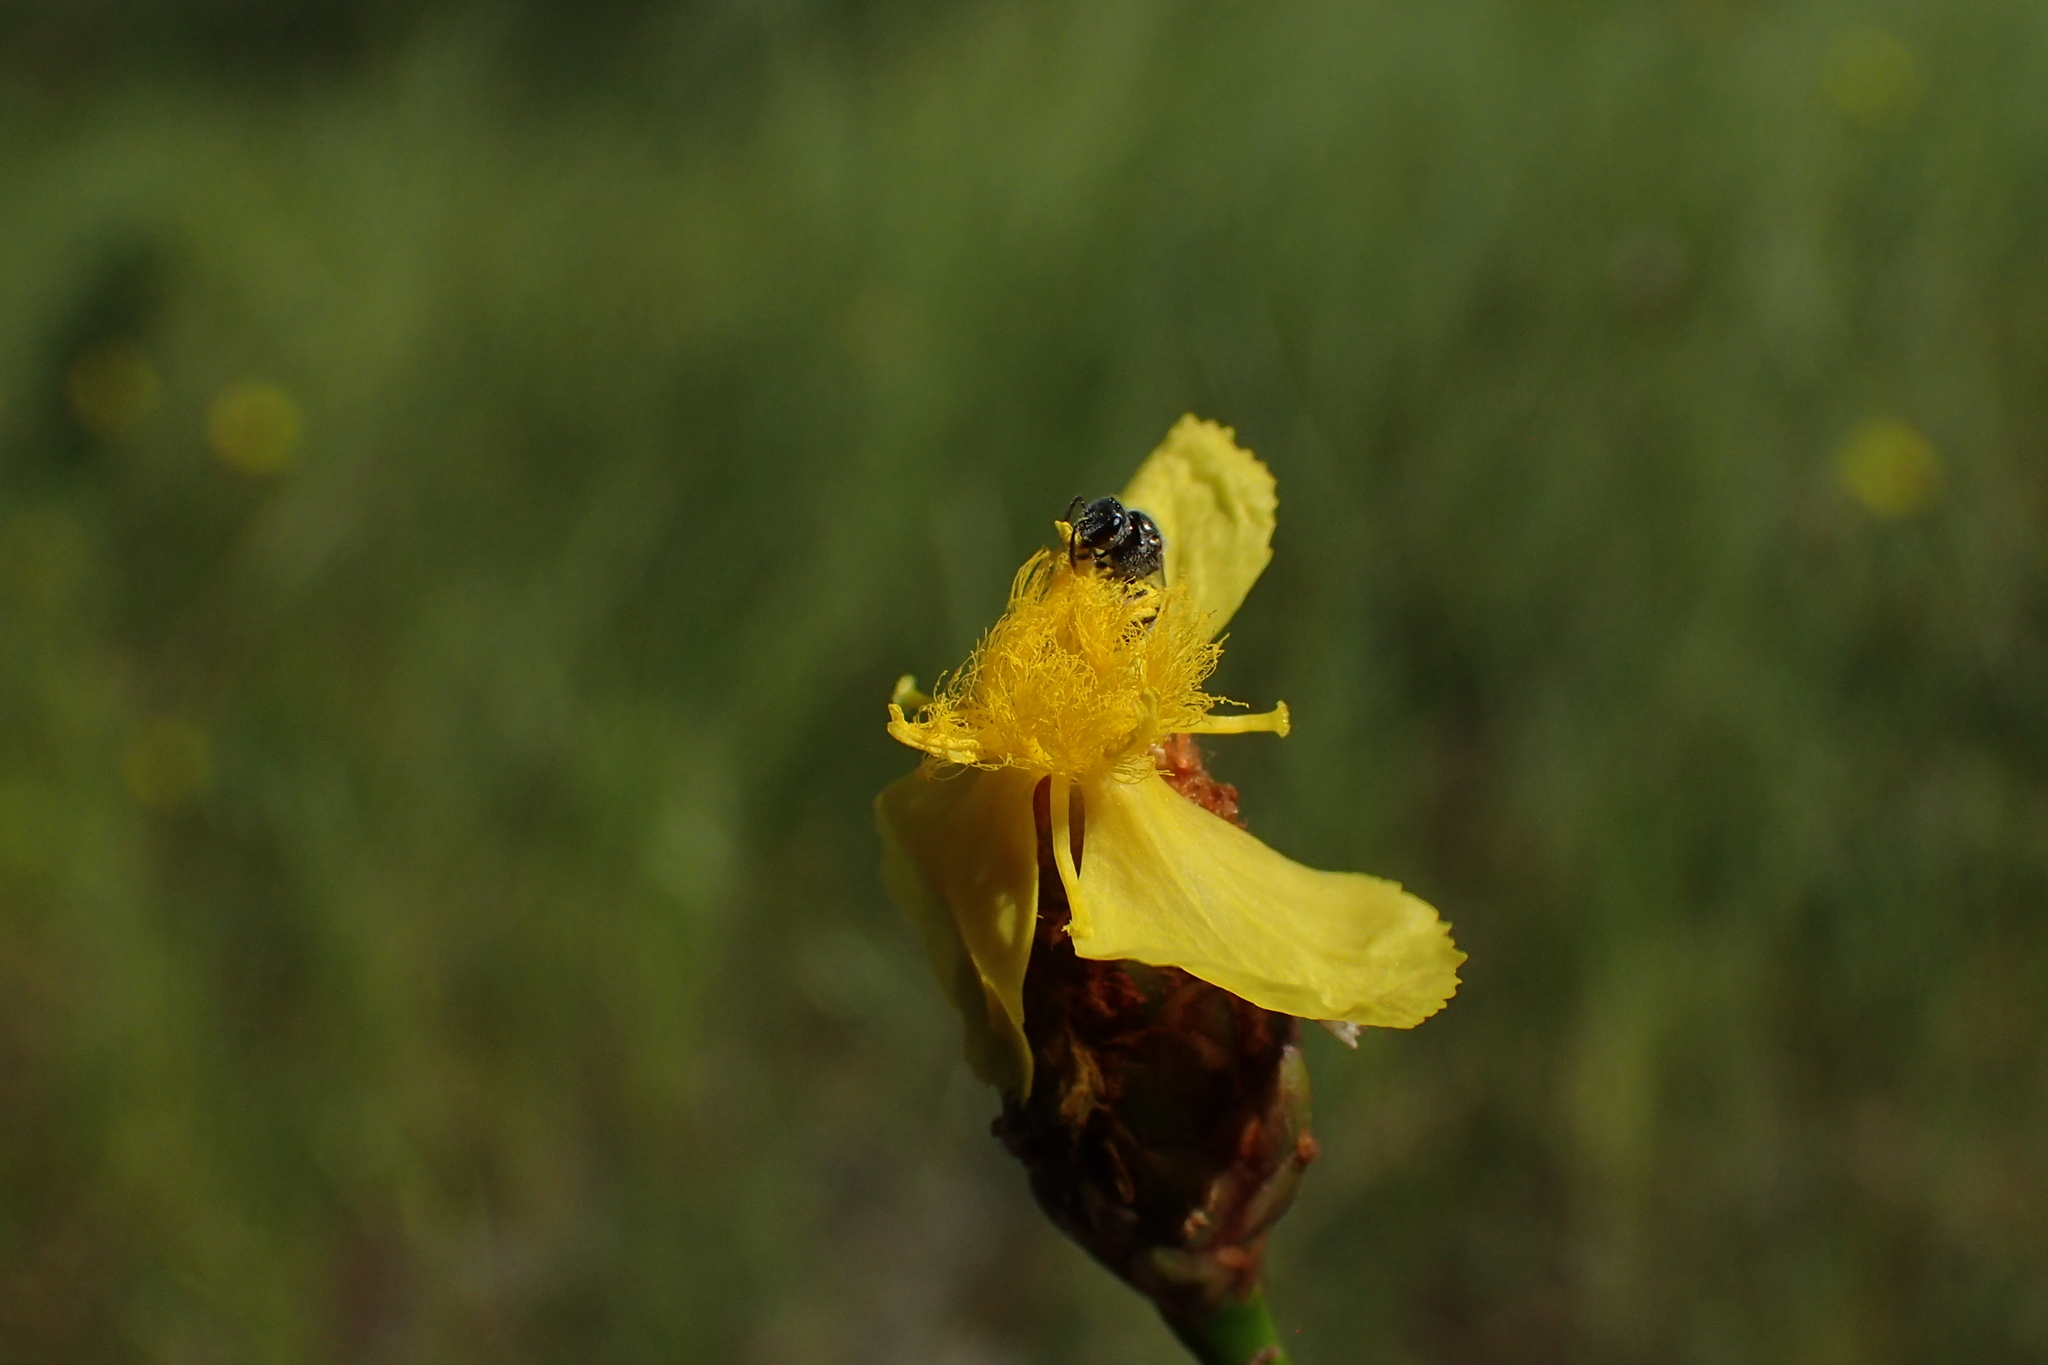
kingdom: Plantae
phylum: Tracheophyta
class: Liliopsida
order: Poales
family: Xyridaceae
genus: Xyris
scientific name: Xyris caroliniana
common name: Carolina yellow-eyed-grass
